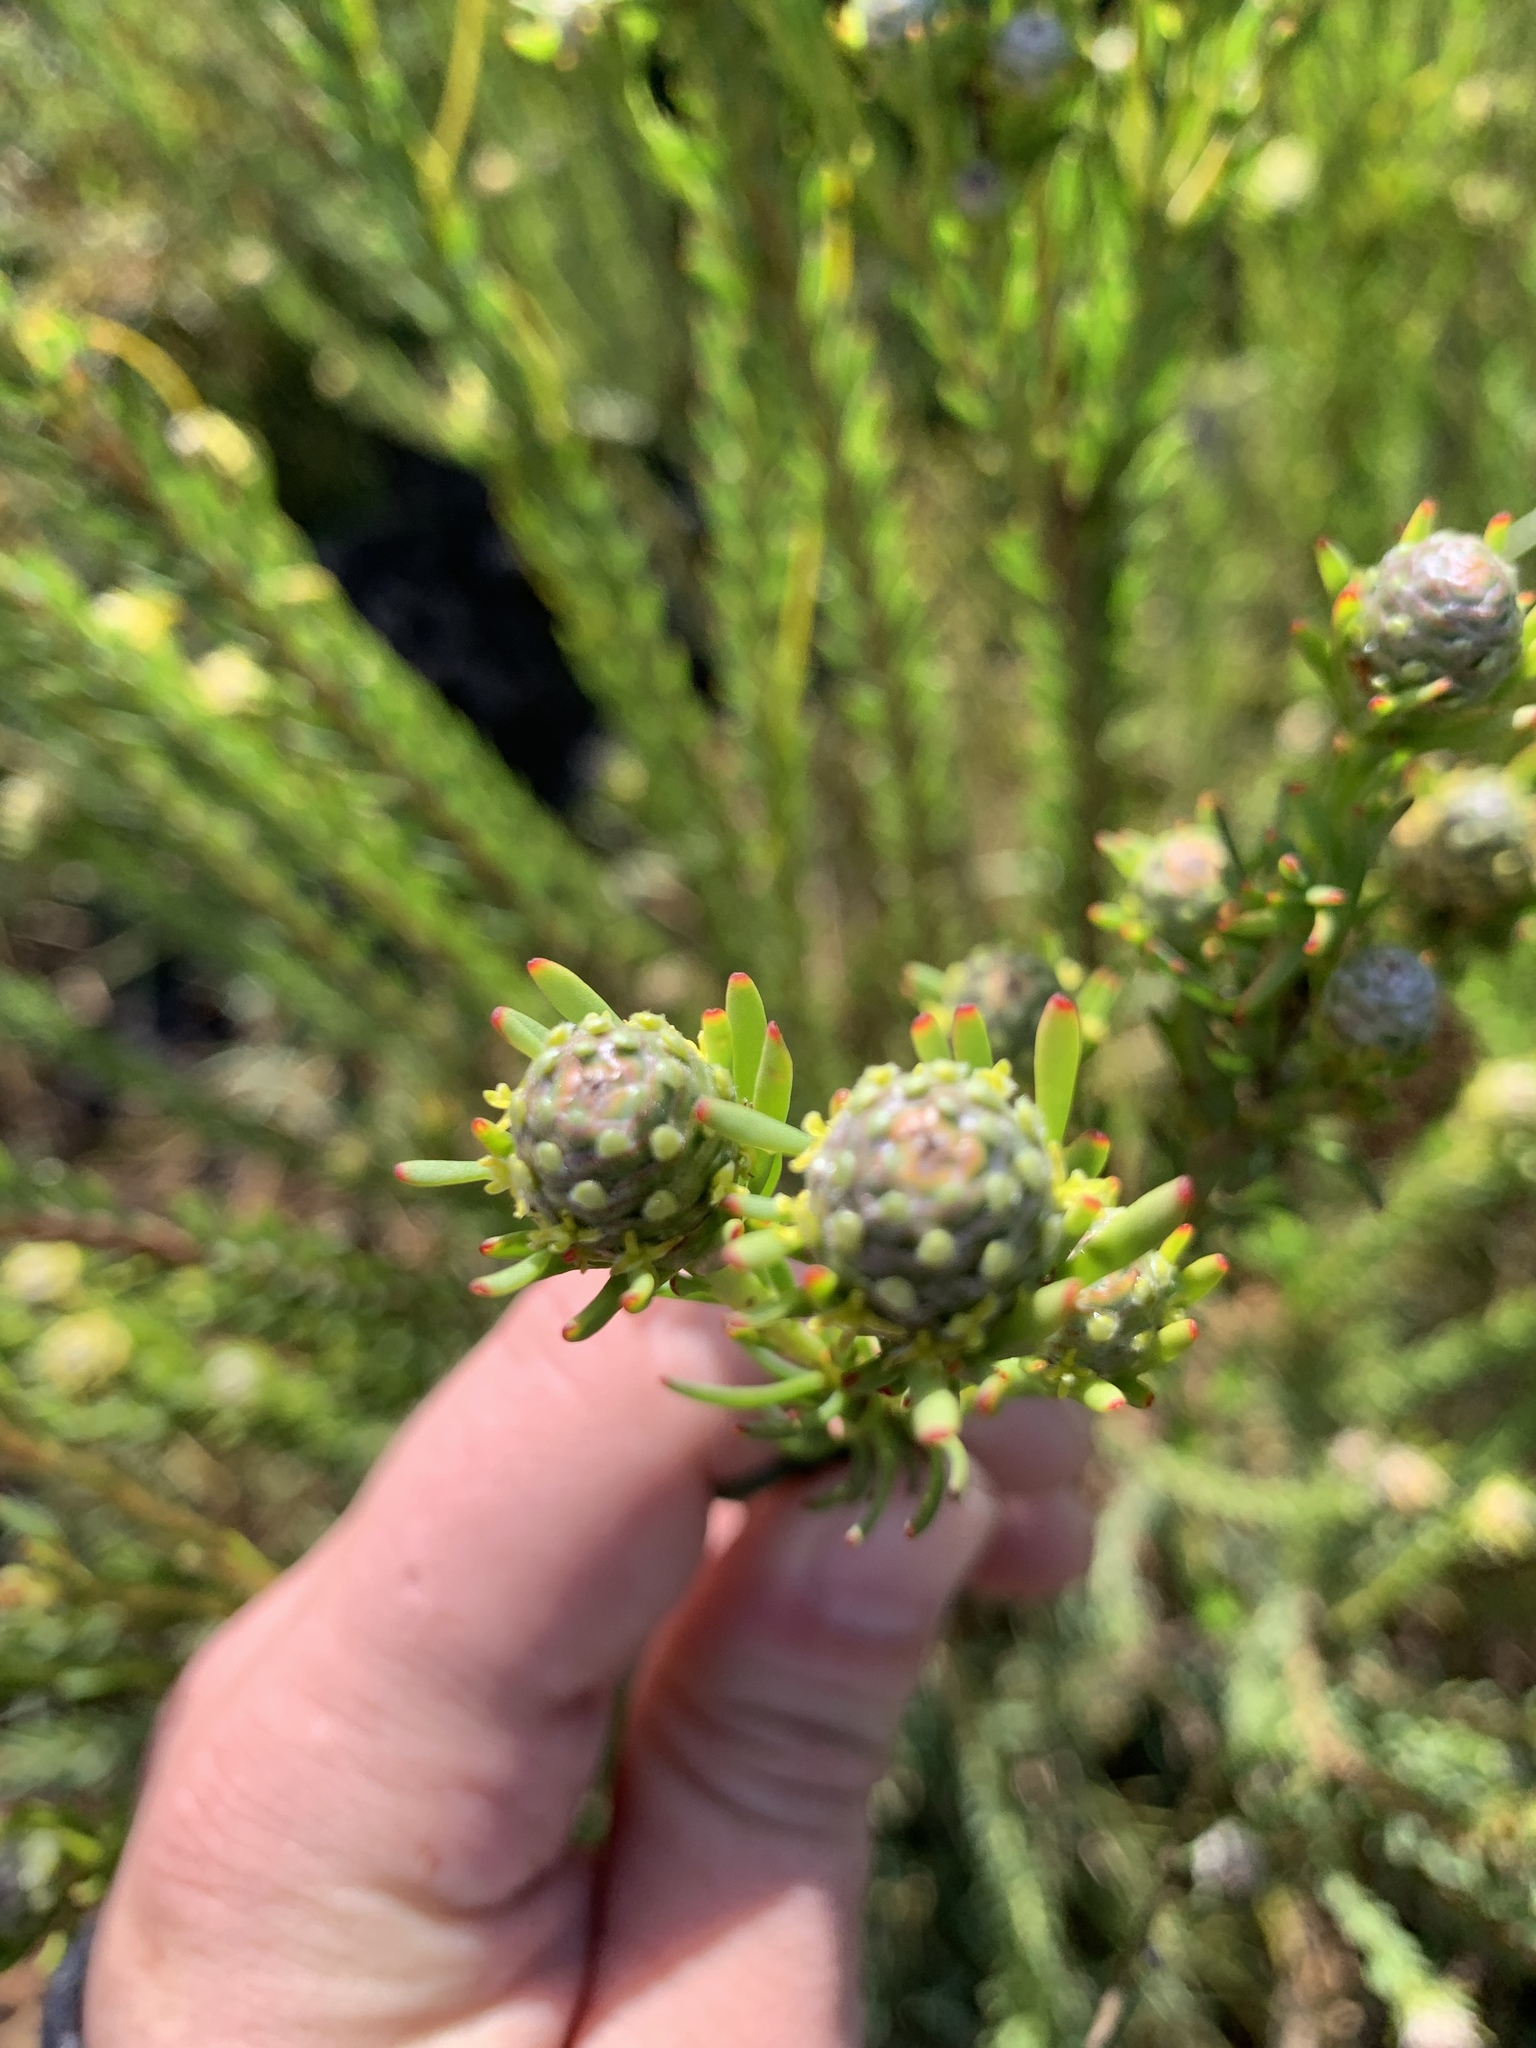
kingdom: Plantae
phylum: Tracheophyta
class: Magnoliopsida
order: Proteales
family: Proteaceae
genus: Leucadendron
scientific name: Leucadendron linifolium
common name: Line-leaf conebush
